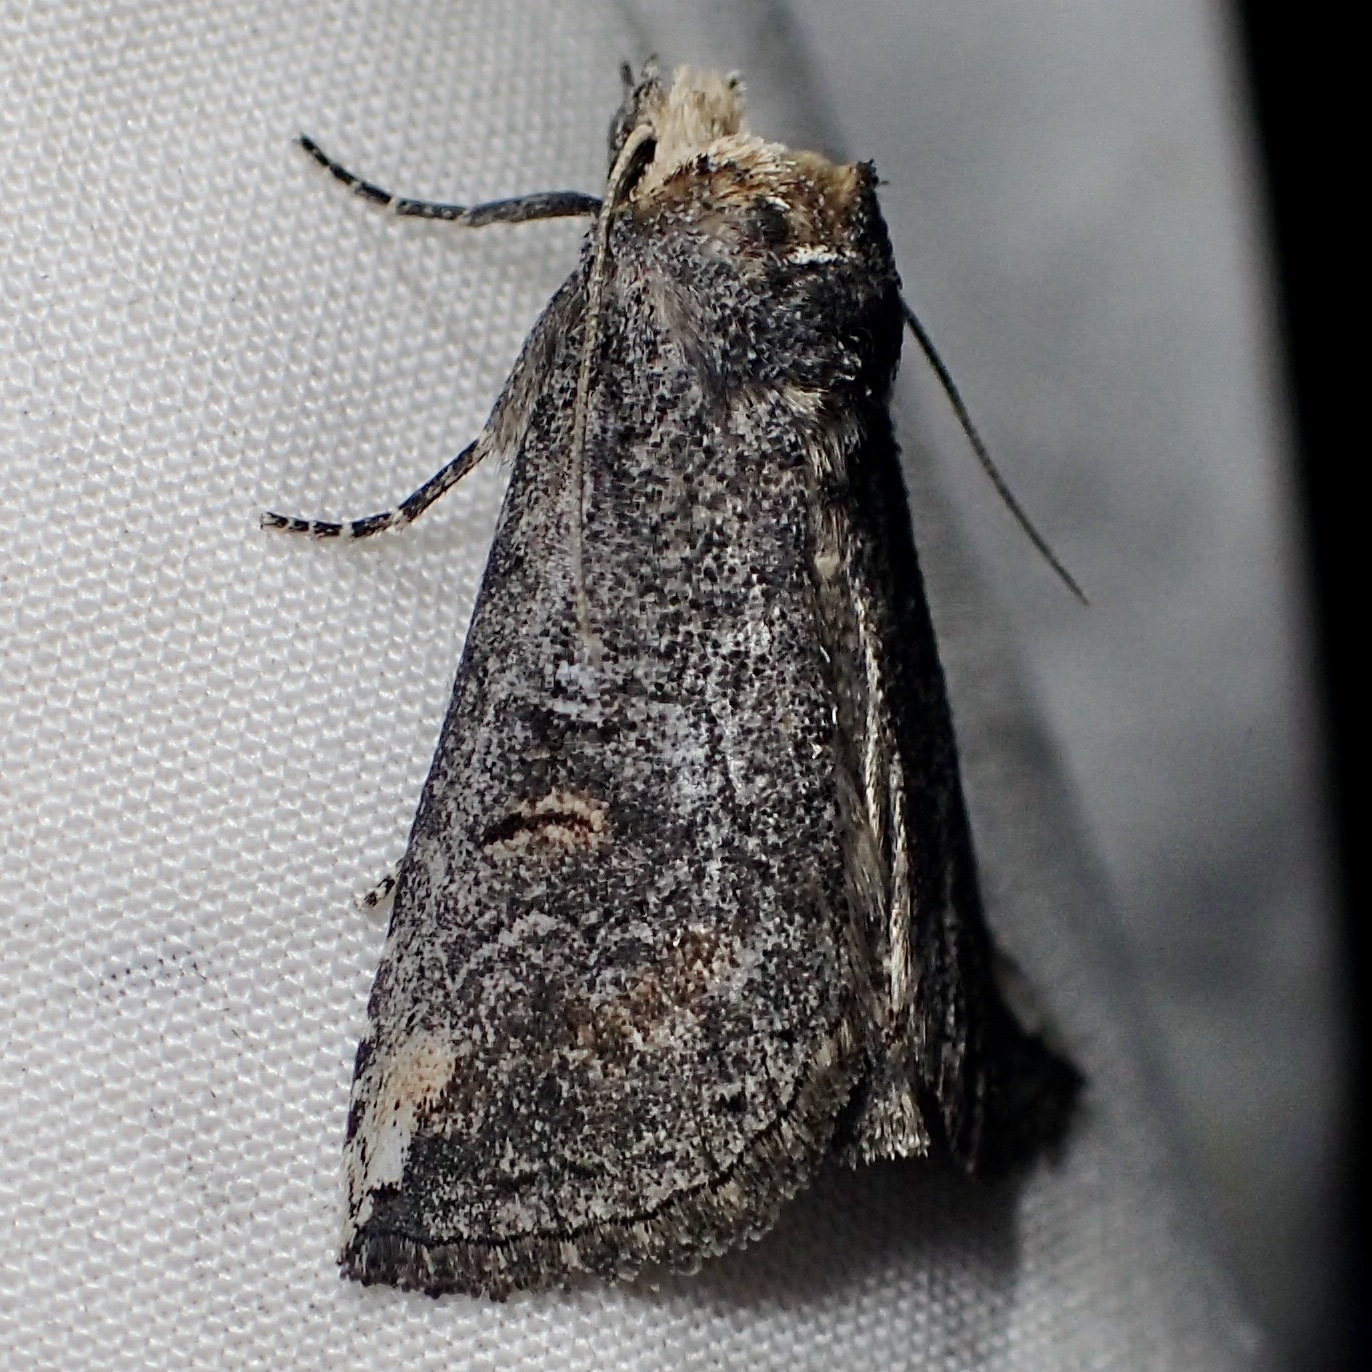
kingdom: Animalia
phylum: Arthropoda
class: Insecta
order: Lepidoptera
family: Notodontidae
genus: Elasmia
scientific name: Elasmia packardii
